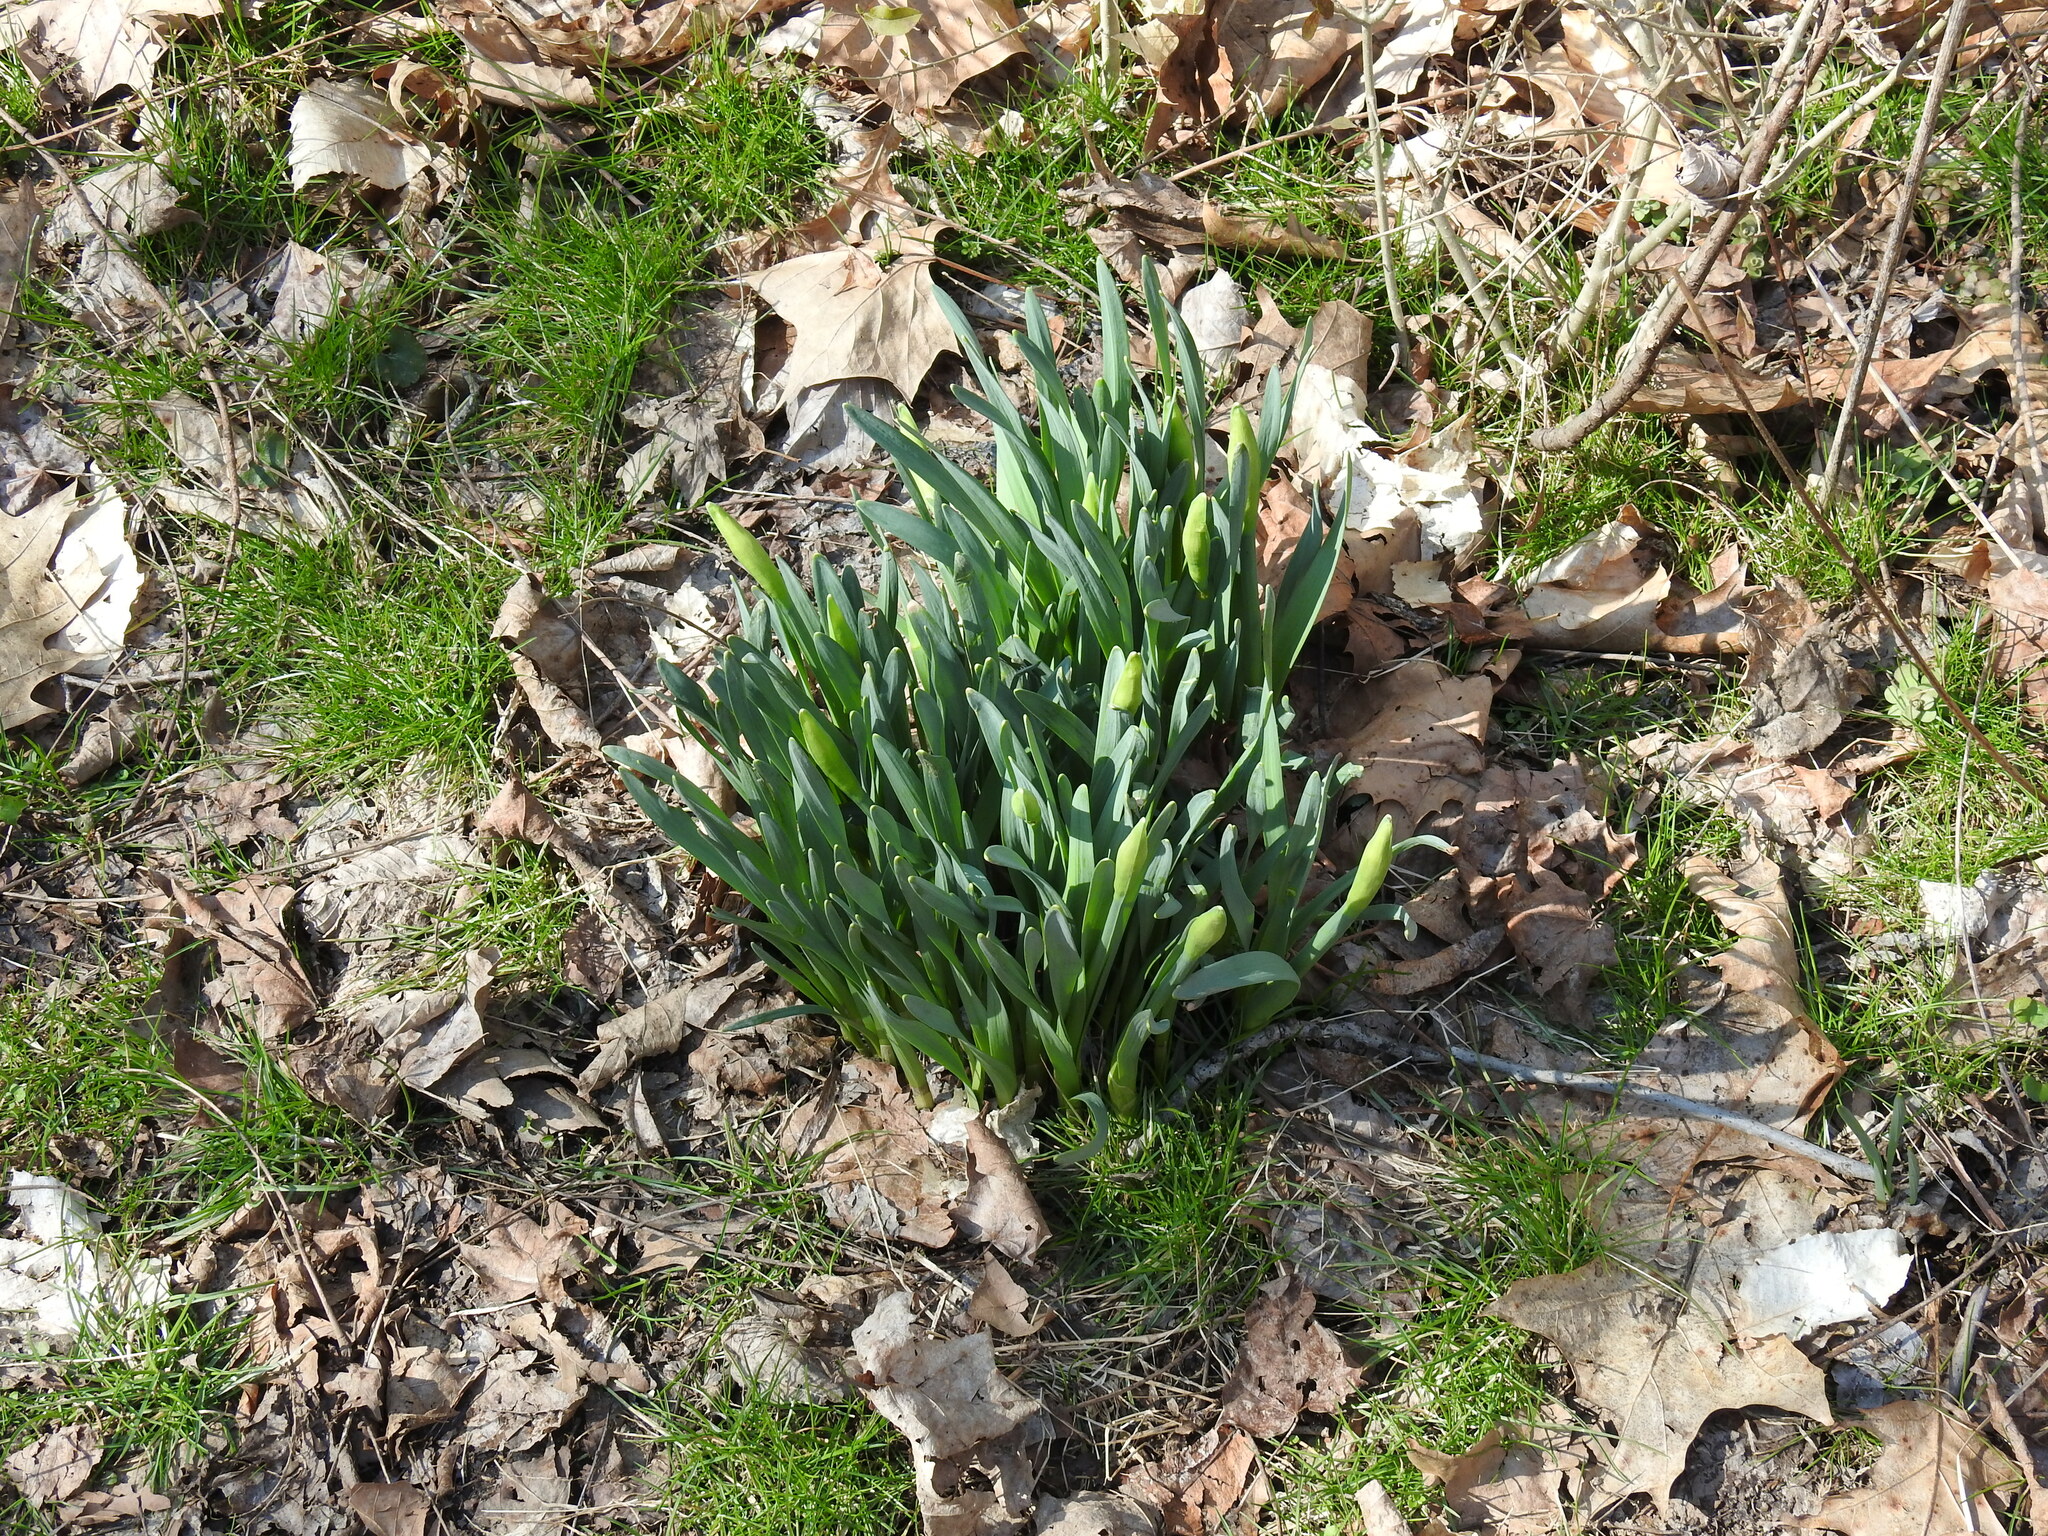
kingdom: Plantae
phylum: Tracheophyta
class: Liliopsida
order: Asparagales
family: Amaryllidaceae
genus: Narcissus
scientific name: Narcissus
